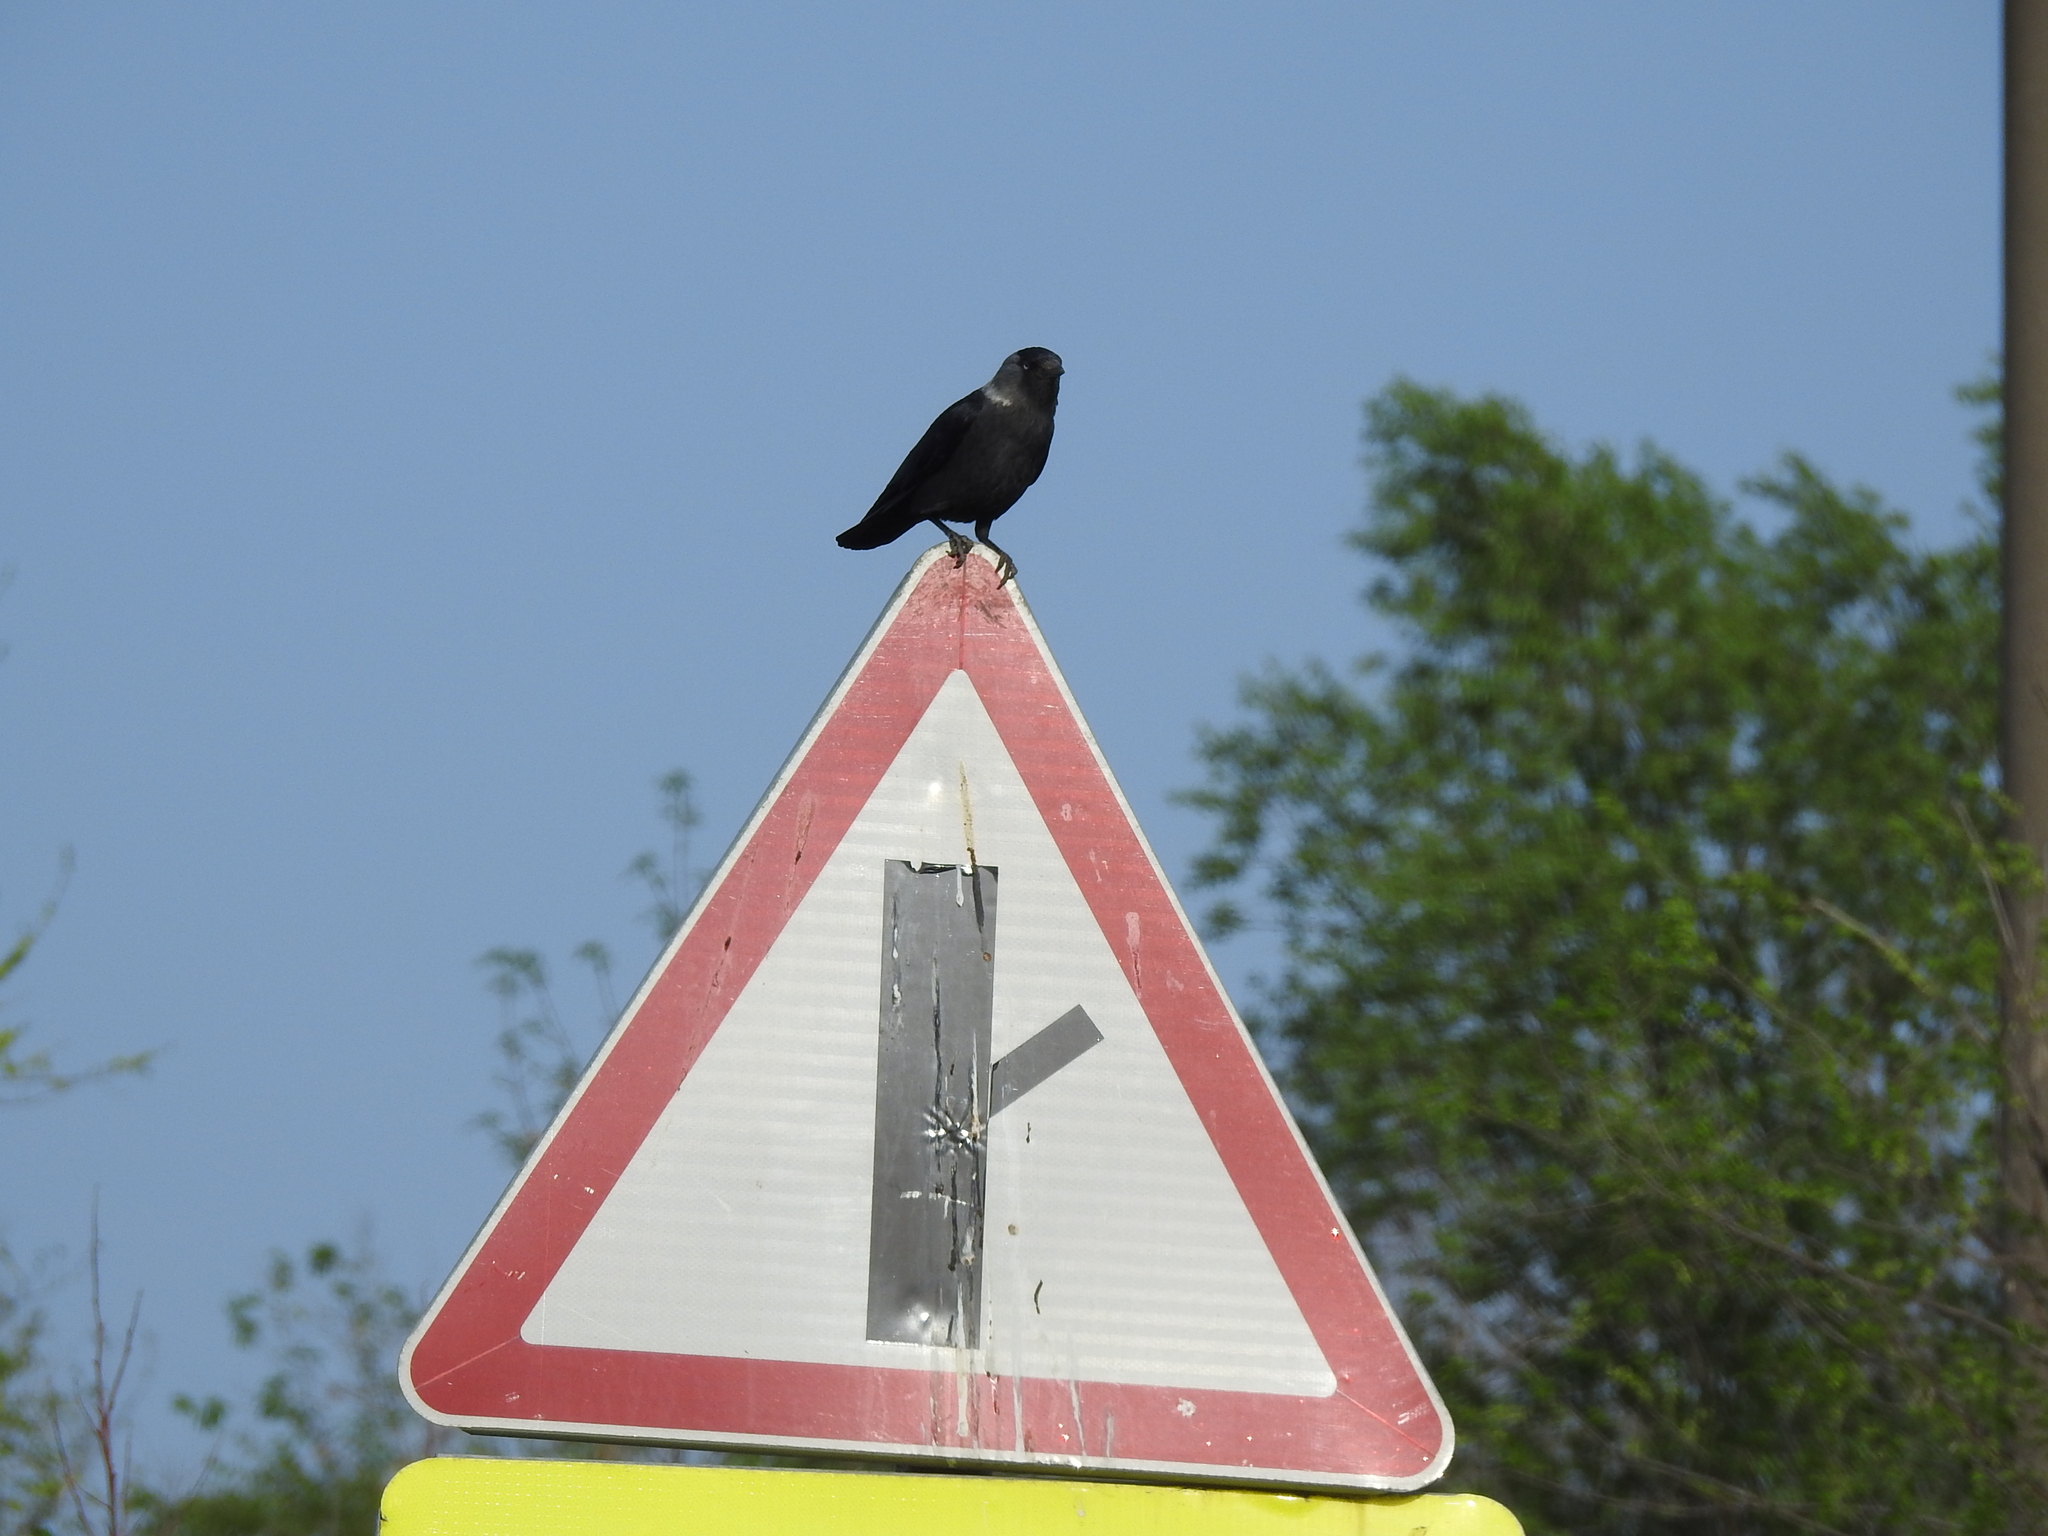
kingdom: Animalia
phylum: Chordata
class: Aves
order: Passeriformes
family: Corvidae
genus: Coloeus
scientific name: Coloeus monedula
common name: Western jackdaw
